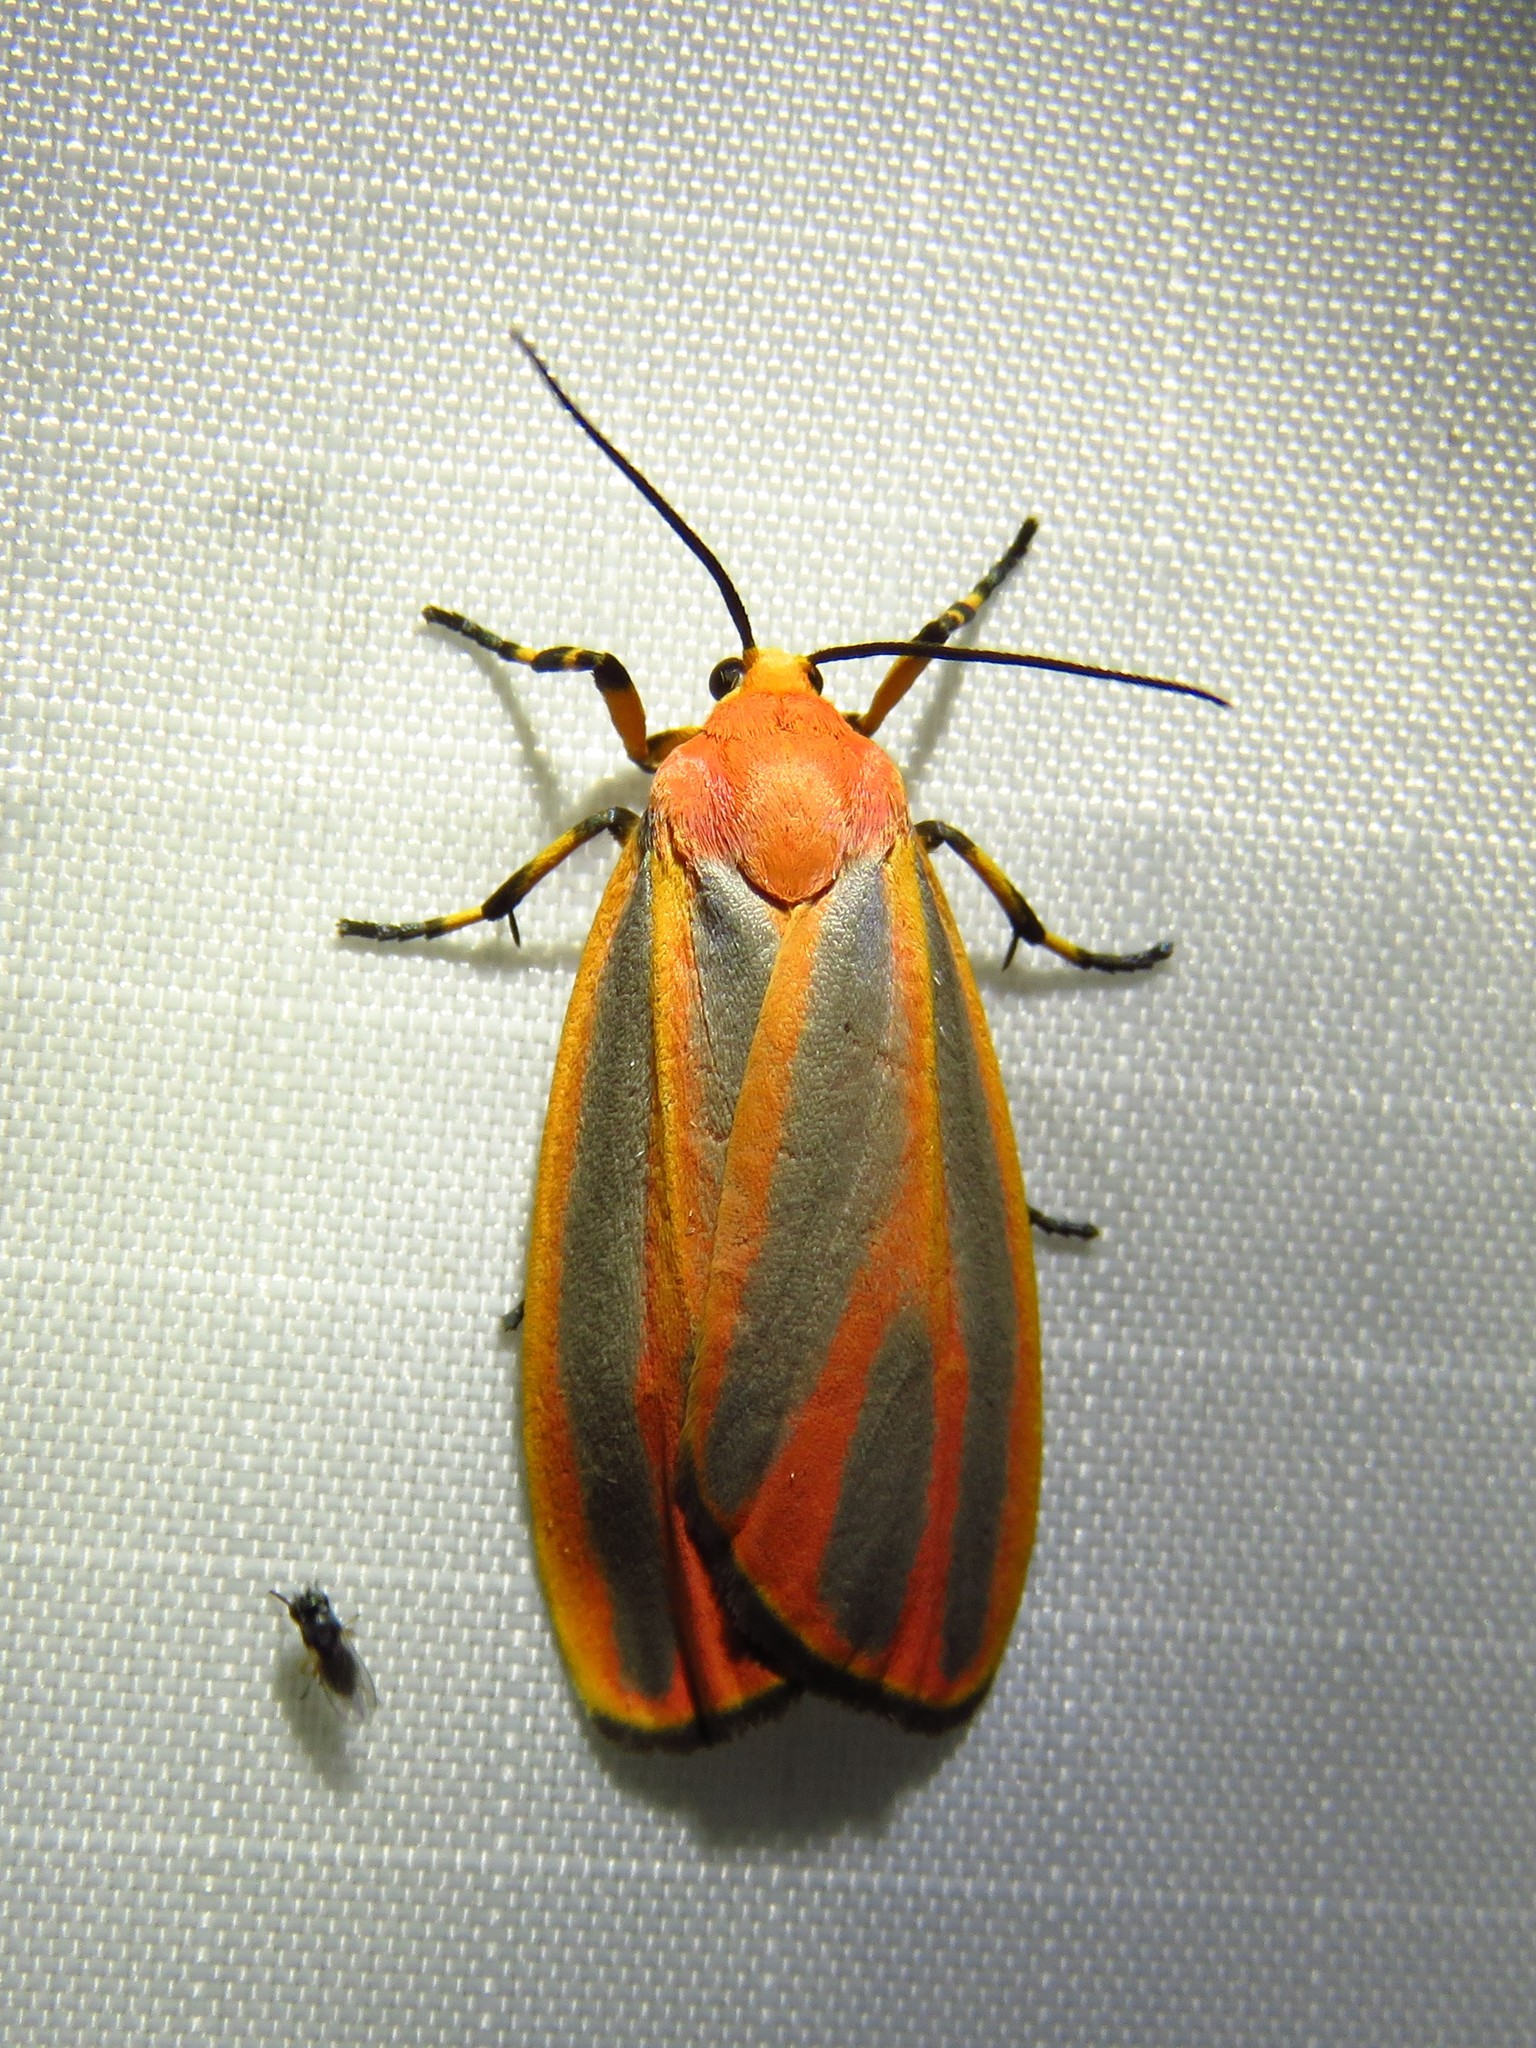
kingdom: Animalia
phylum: Arthropoda
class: Insecta
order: Lepidoptera
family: Erebidae
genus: Hypoprepia
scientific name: Hypoprepia fucosa
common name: Painted lichen moth
